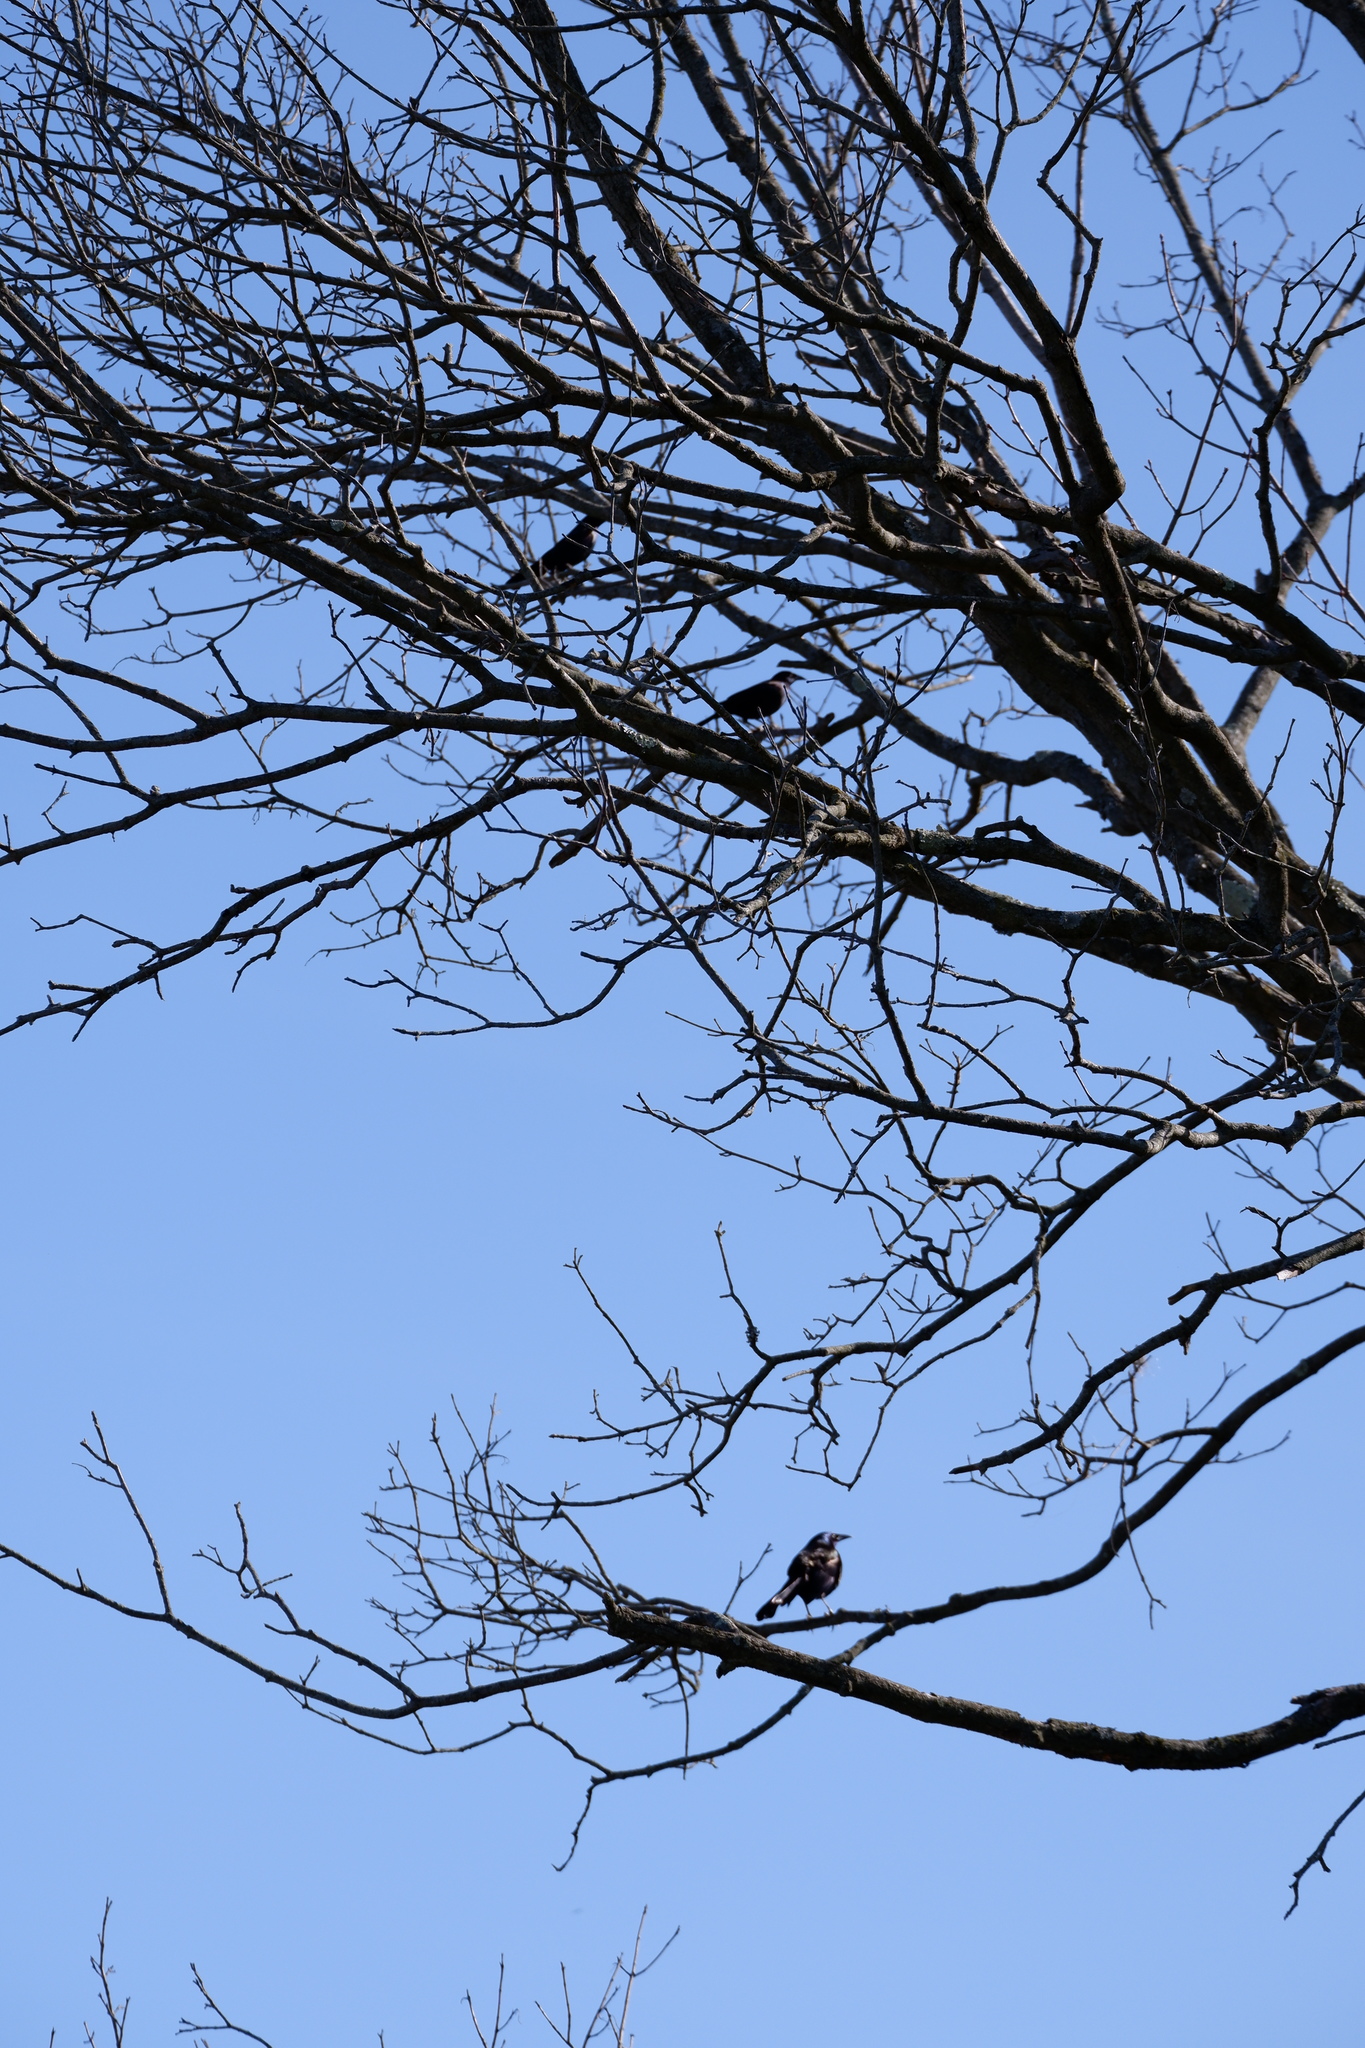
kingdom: Animalia
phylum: Chordata
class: Aves
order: Passeriformes
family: Icteridae
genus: Quiscalus
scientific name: Quiscalus quiscula
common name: Common grackle
